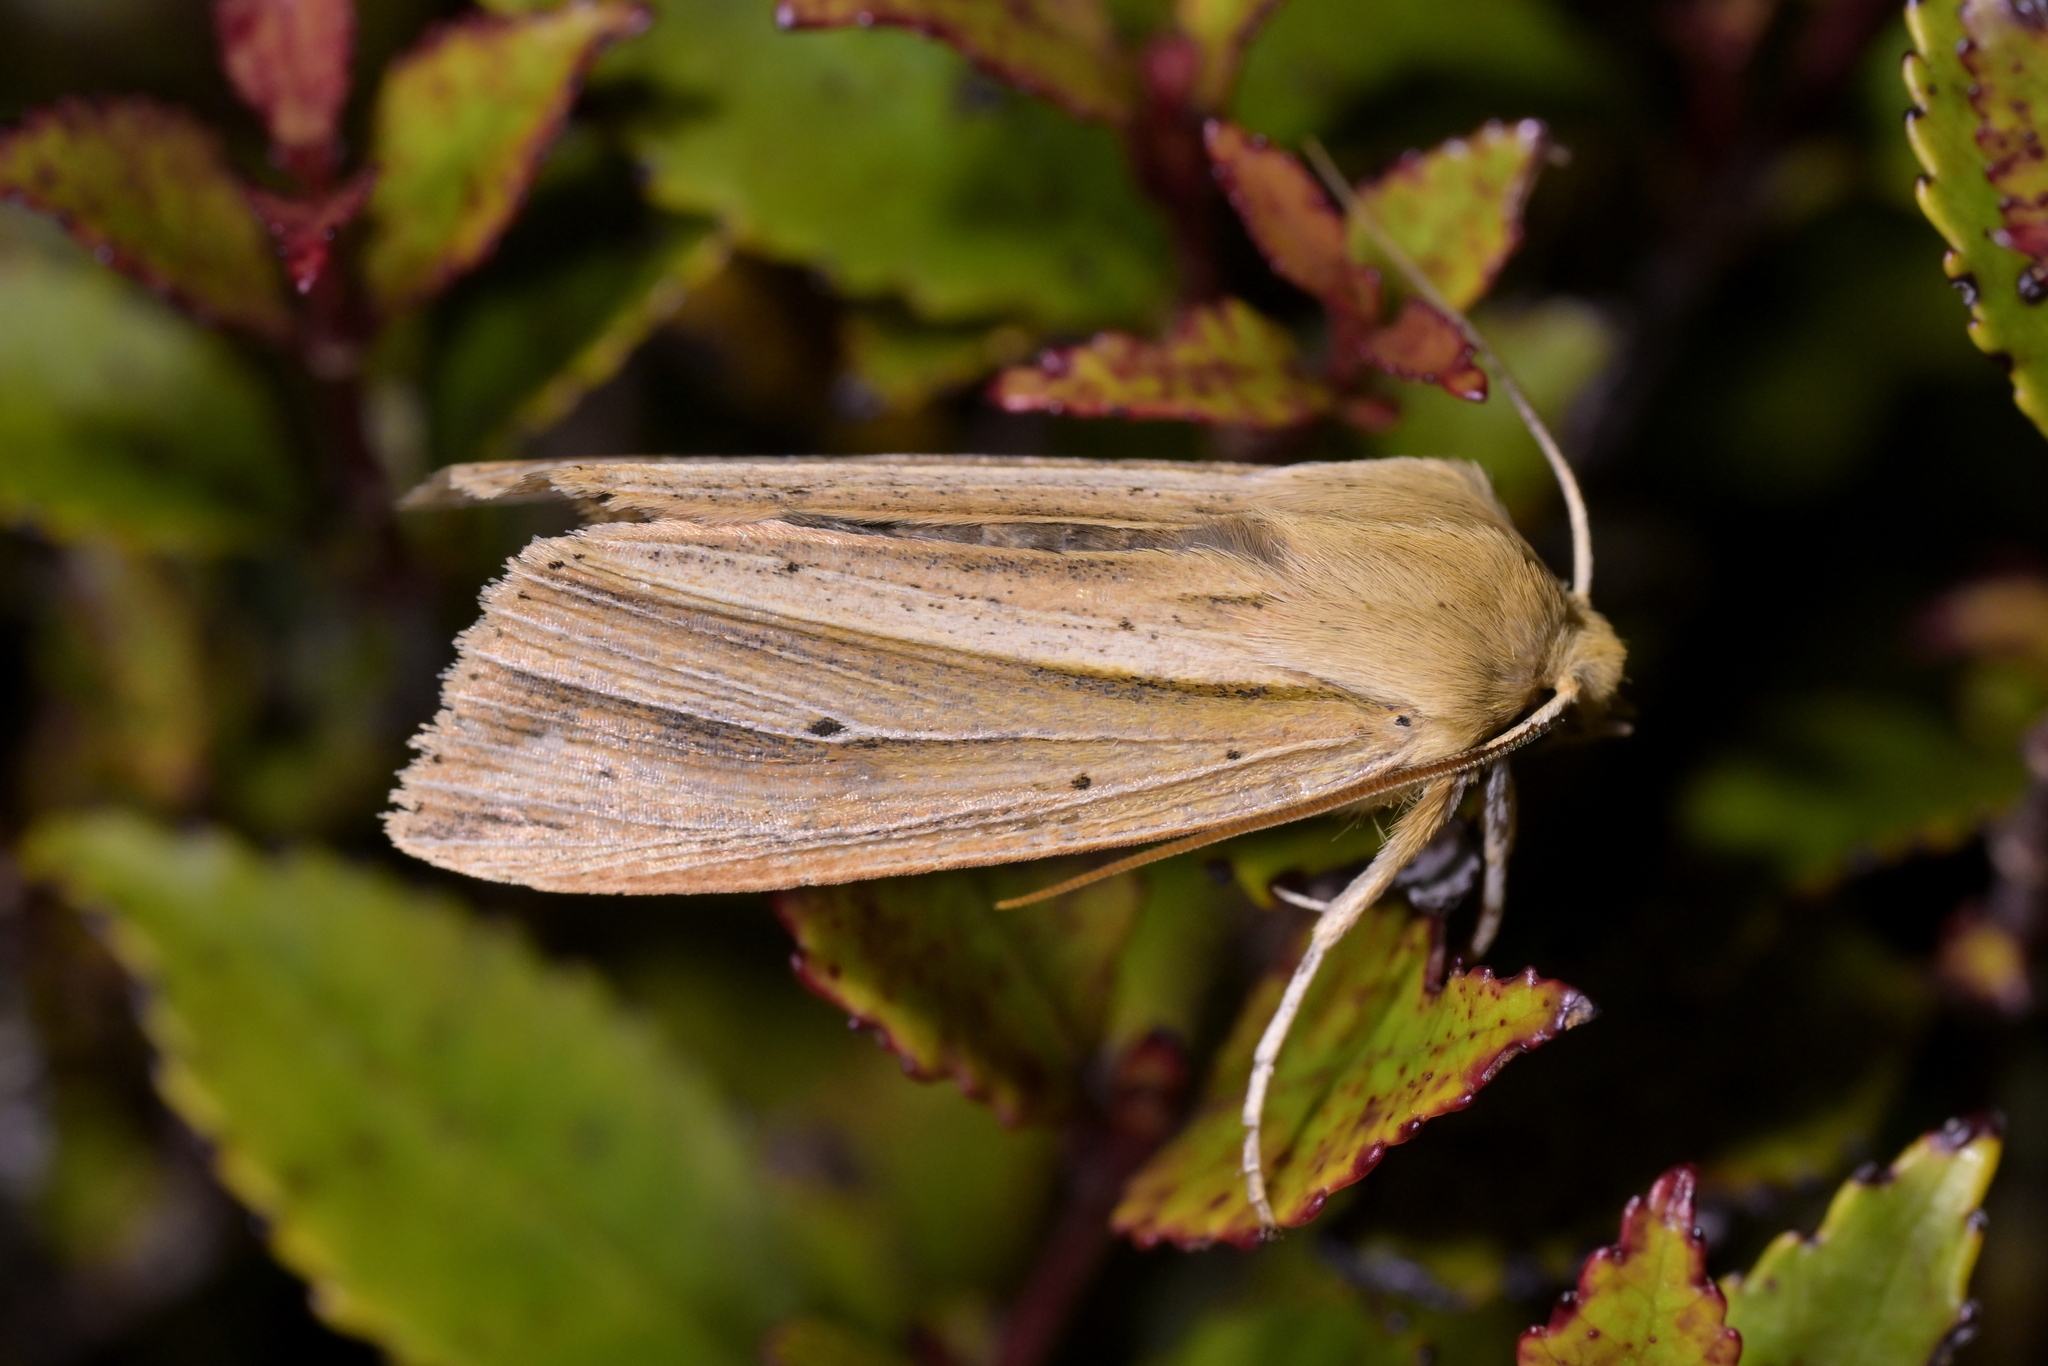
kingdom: Animalia
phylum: Arthropoda
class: Insecta
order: Lepidoptera
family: Noctuidae
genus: Ichneutica
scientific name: Ichneutica sulcana
